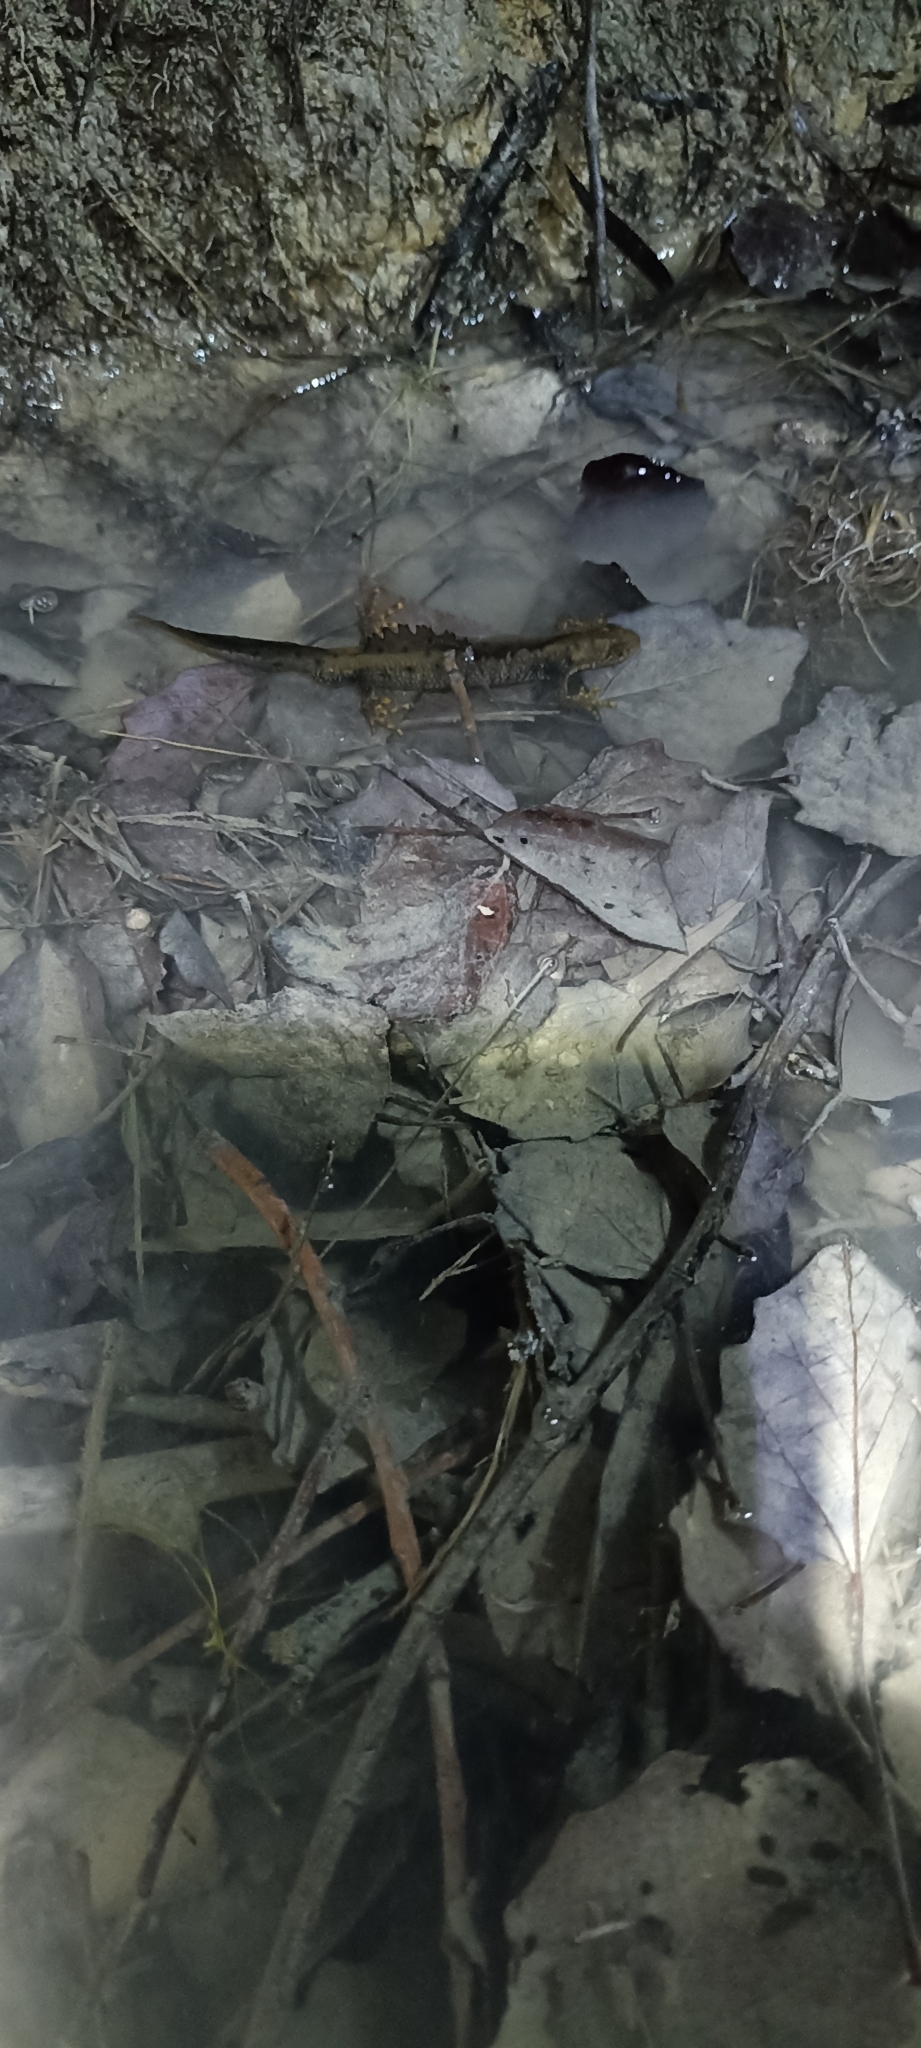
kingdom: Animalia
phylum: Chordata
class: Amphibia
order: Caudata
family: Salamandridae
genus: Triturus
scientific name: Triturus cristatus
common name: Crested newt
